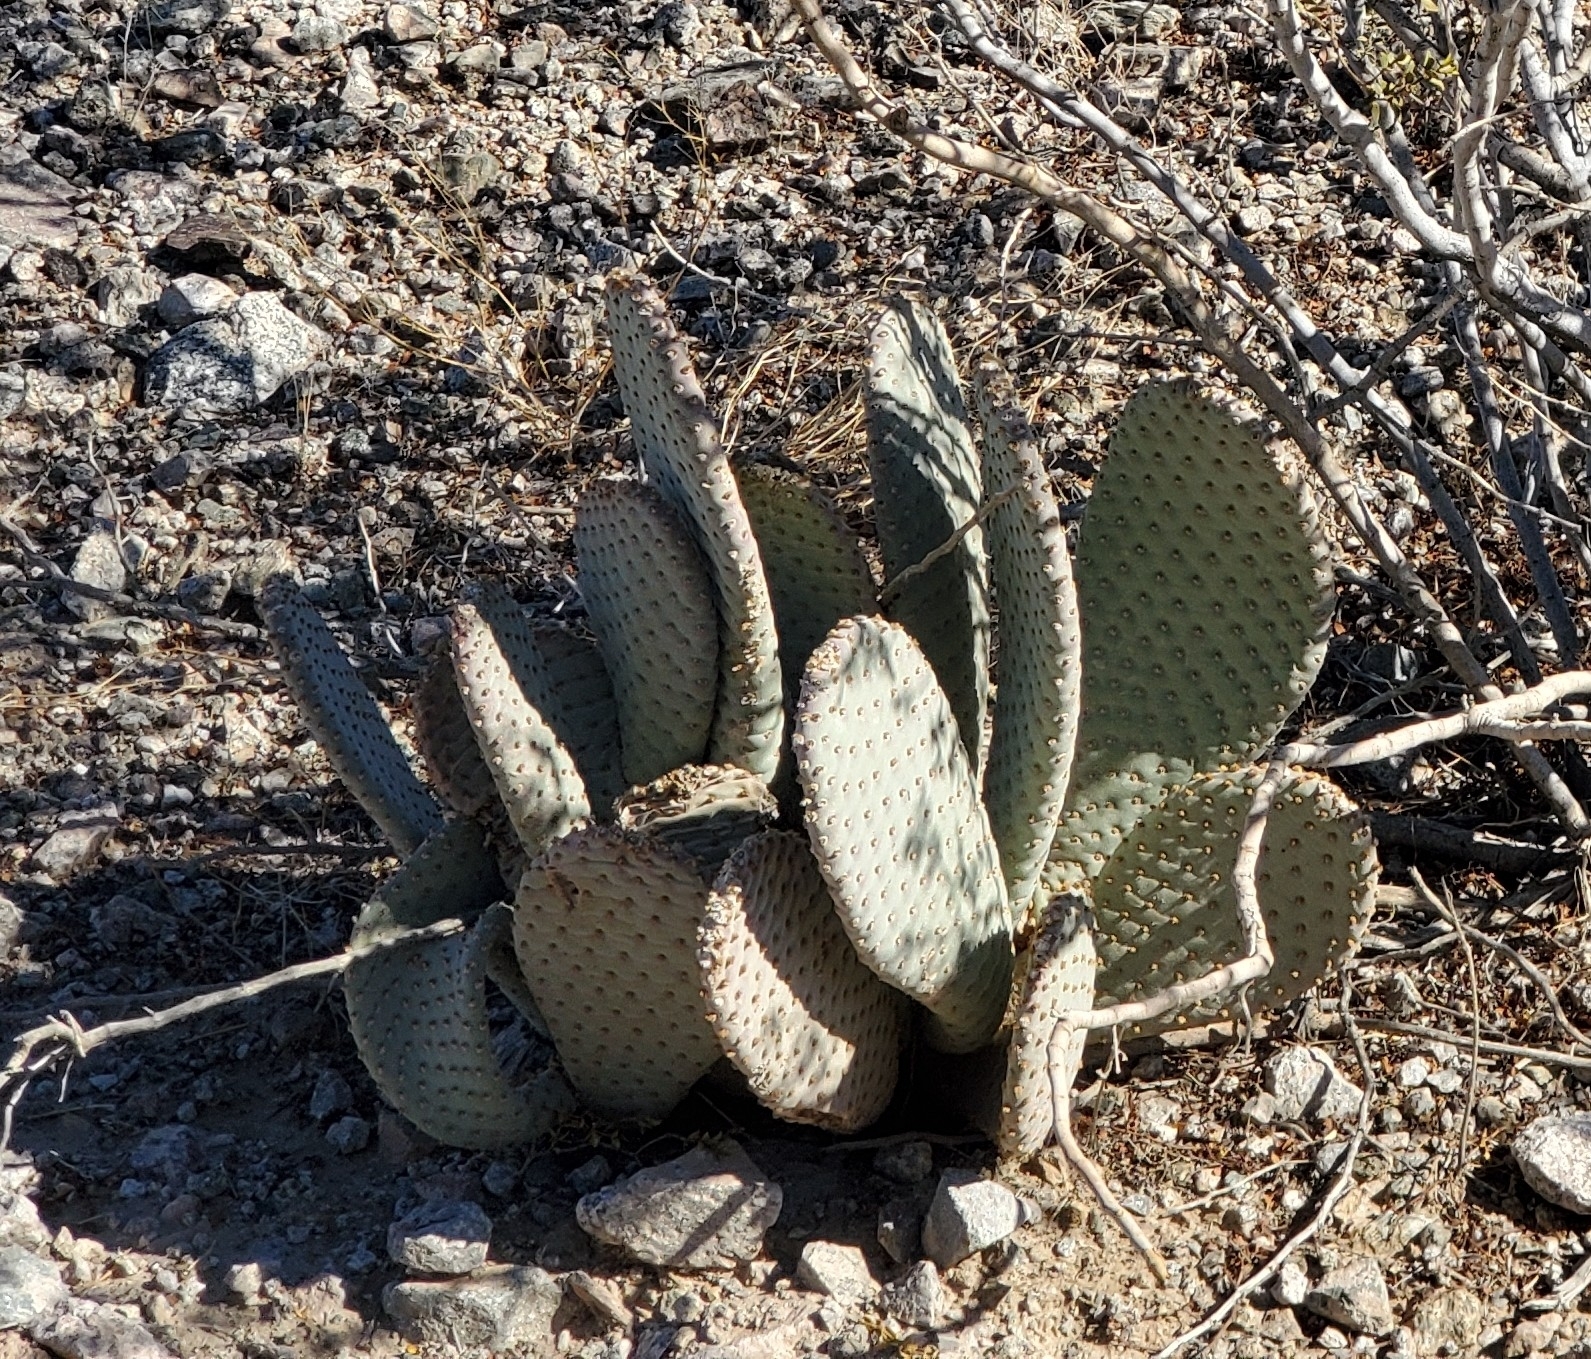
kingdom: Plantae
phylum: Tracheophyta
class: Magnoliopsida
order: Caryophyllales
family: Cactaceae
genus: Opuntia
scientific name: Opuntia basilaris
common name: Beavertail prickly-pear
